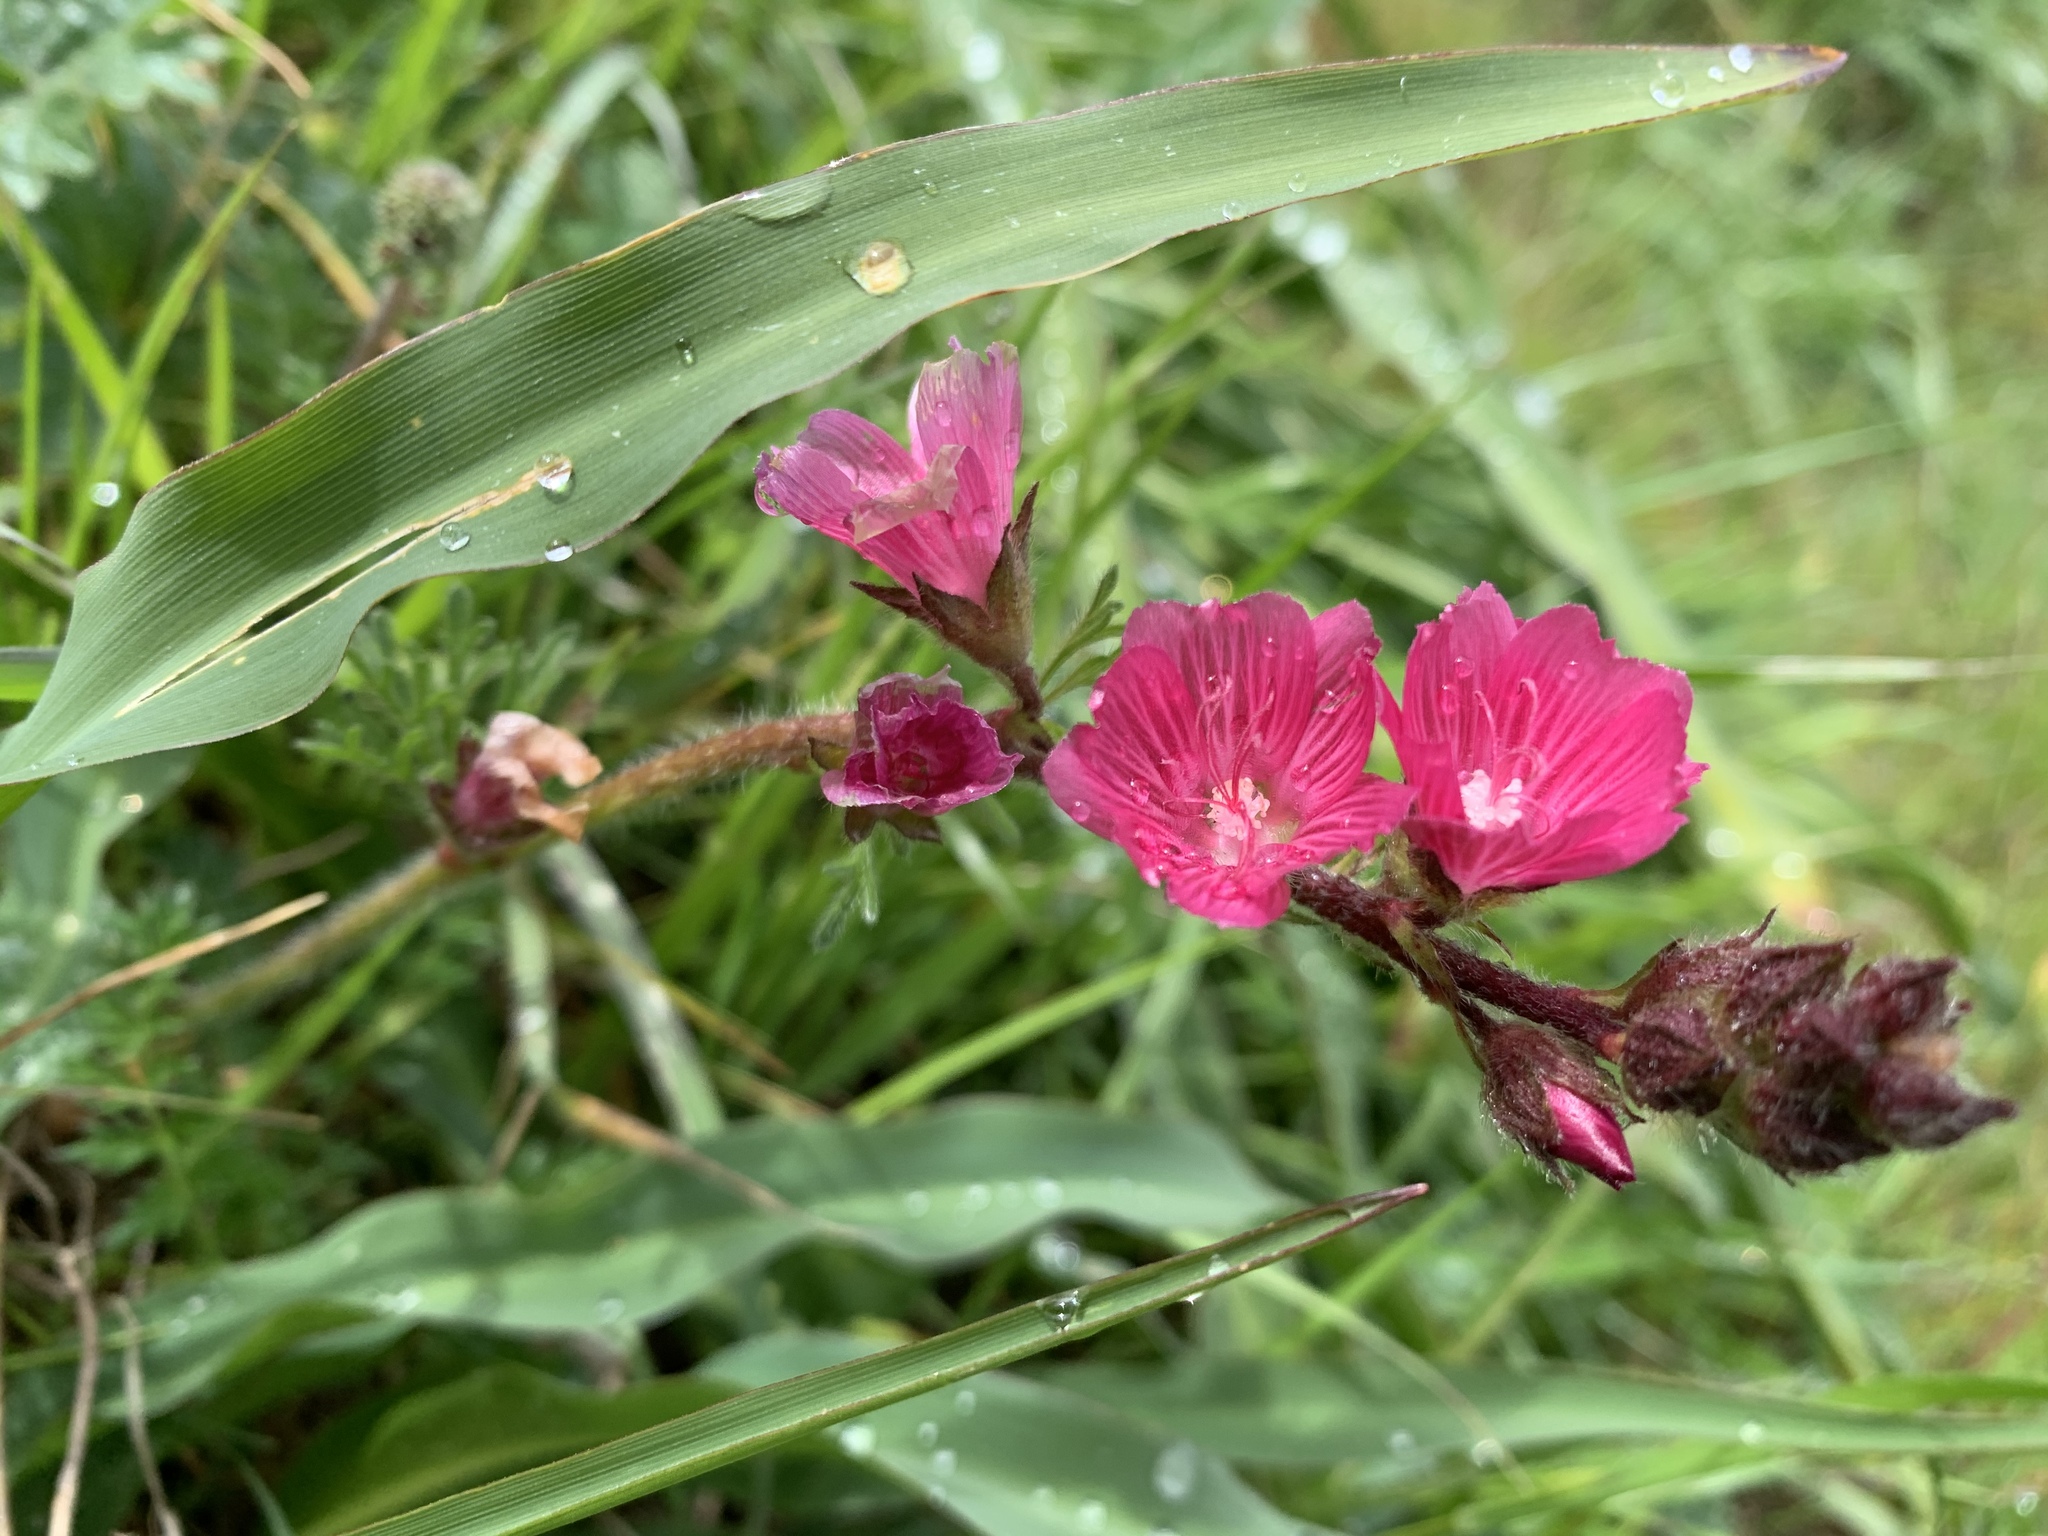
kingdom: Plantae
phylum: Tracheophyta
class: Magnoliopsida
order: Malvales
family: Malvaceae
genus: Sidalcea
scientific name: Sidalcea malviflora
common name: Greek mallow
